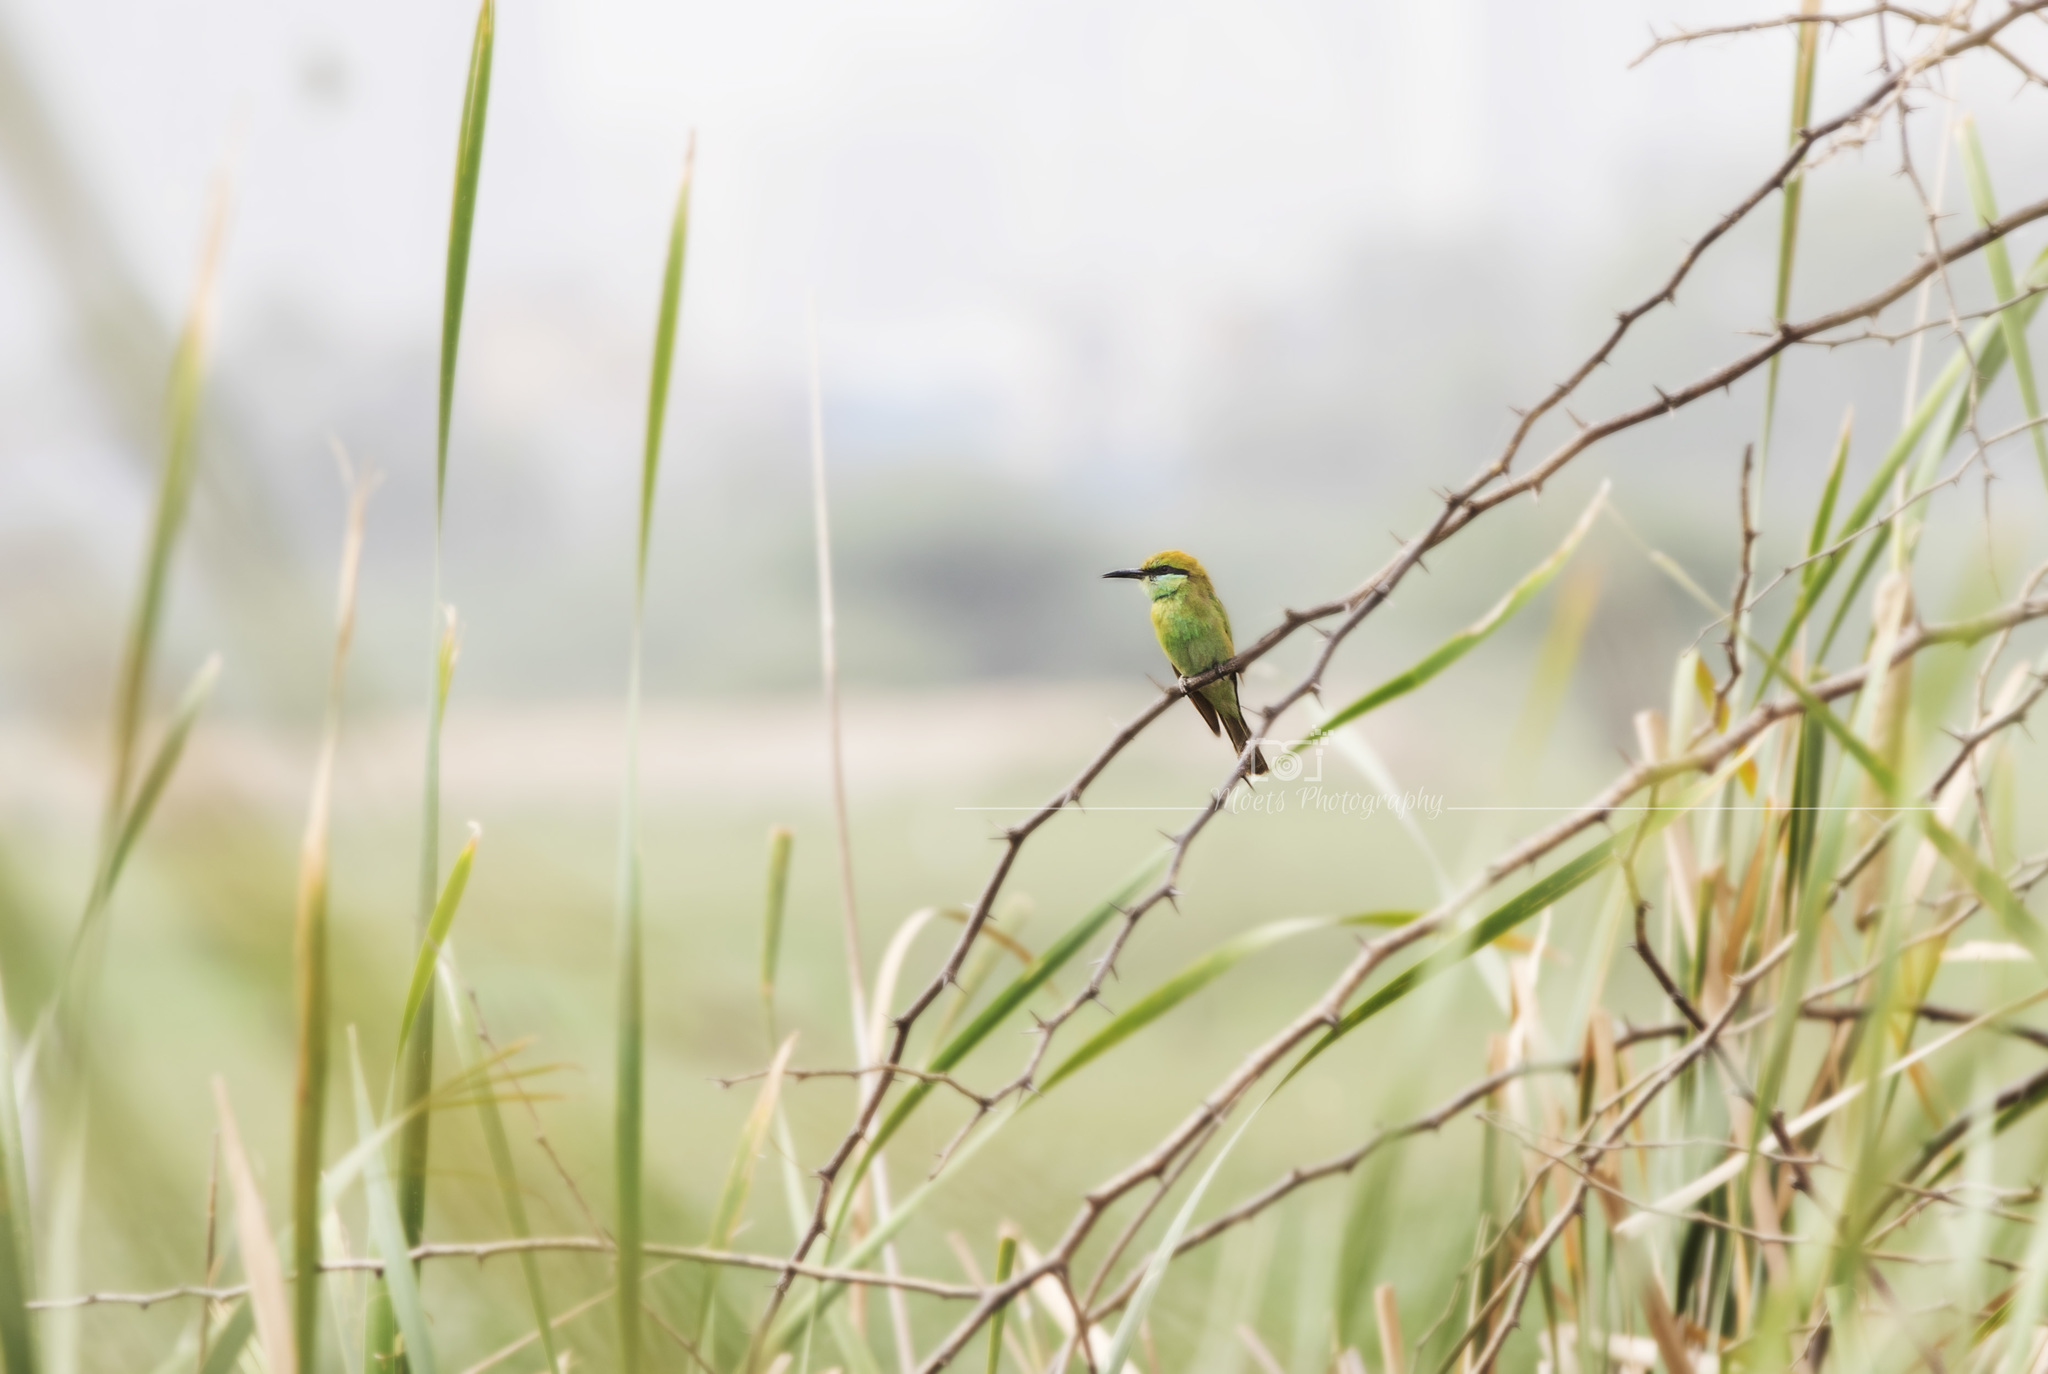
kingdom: Animalia
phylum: Chordata
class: Aves
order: Coraciiformes
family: Meropidae
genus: Merops
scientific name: Merops orientalis
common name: Green bee-eater
